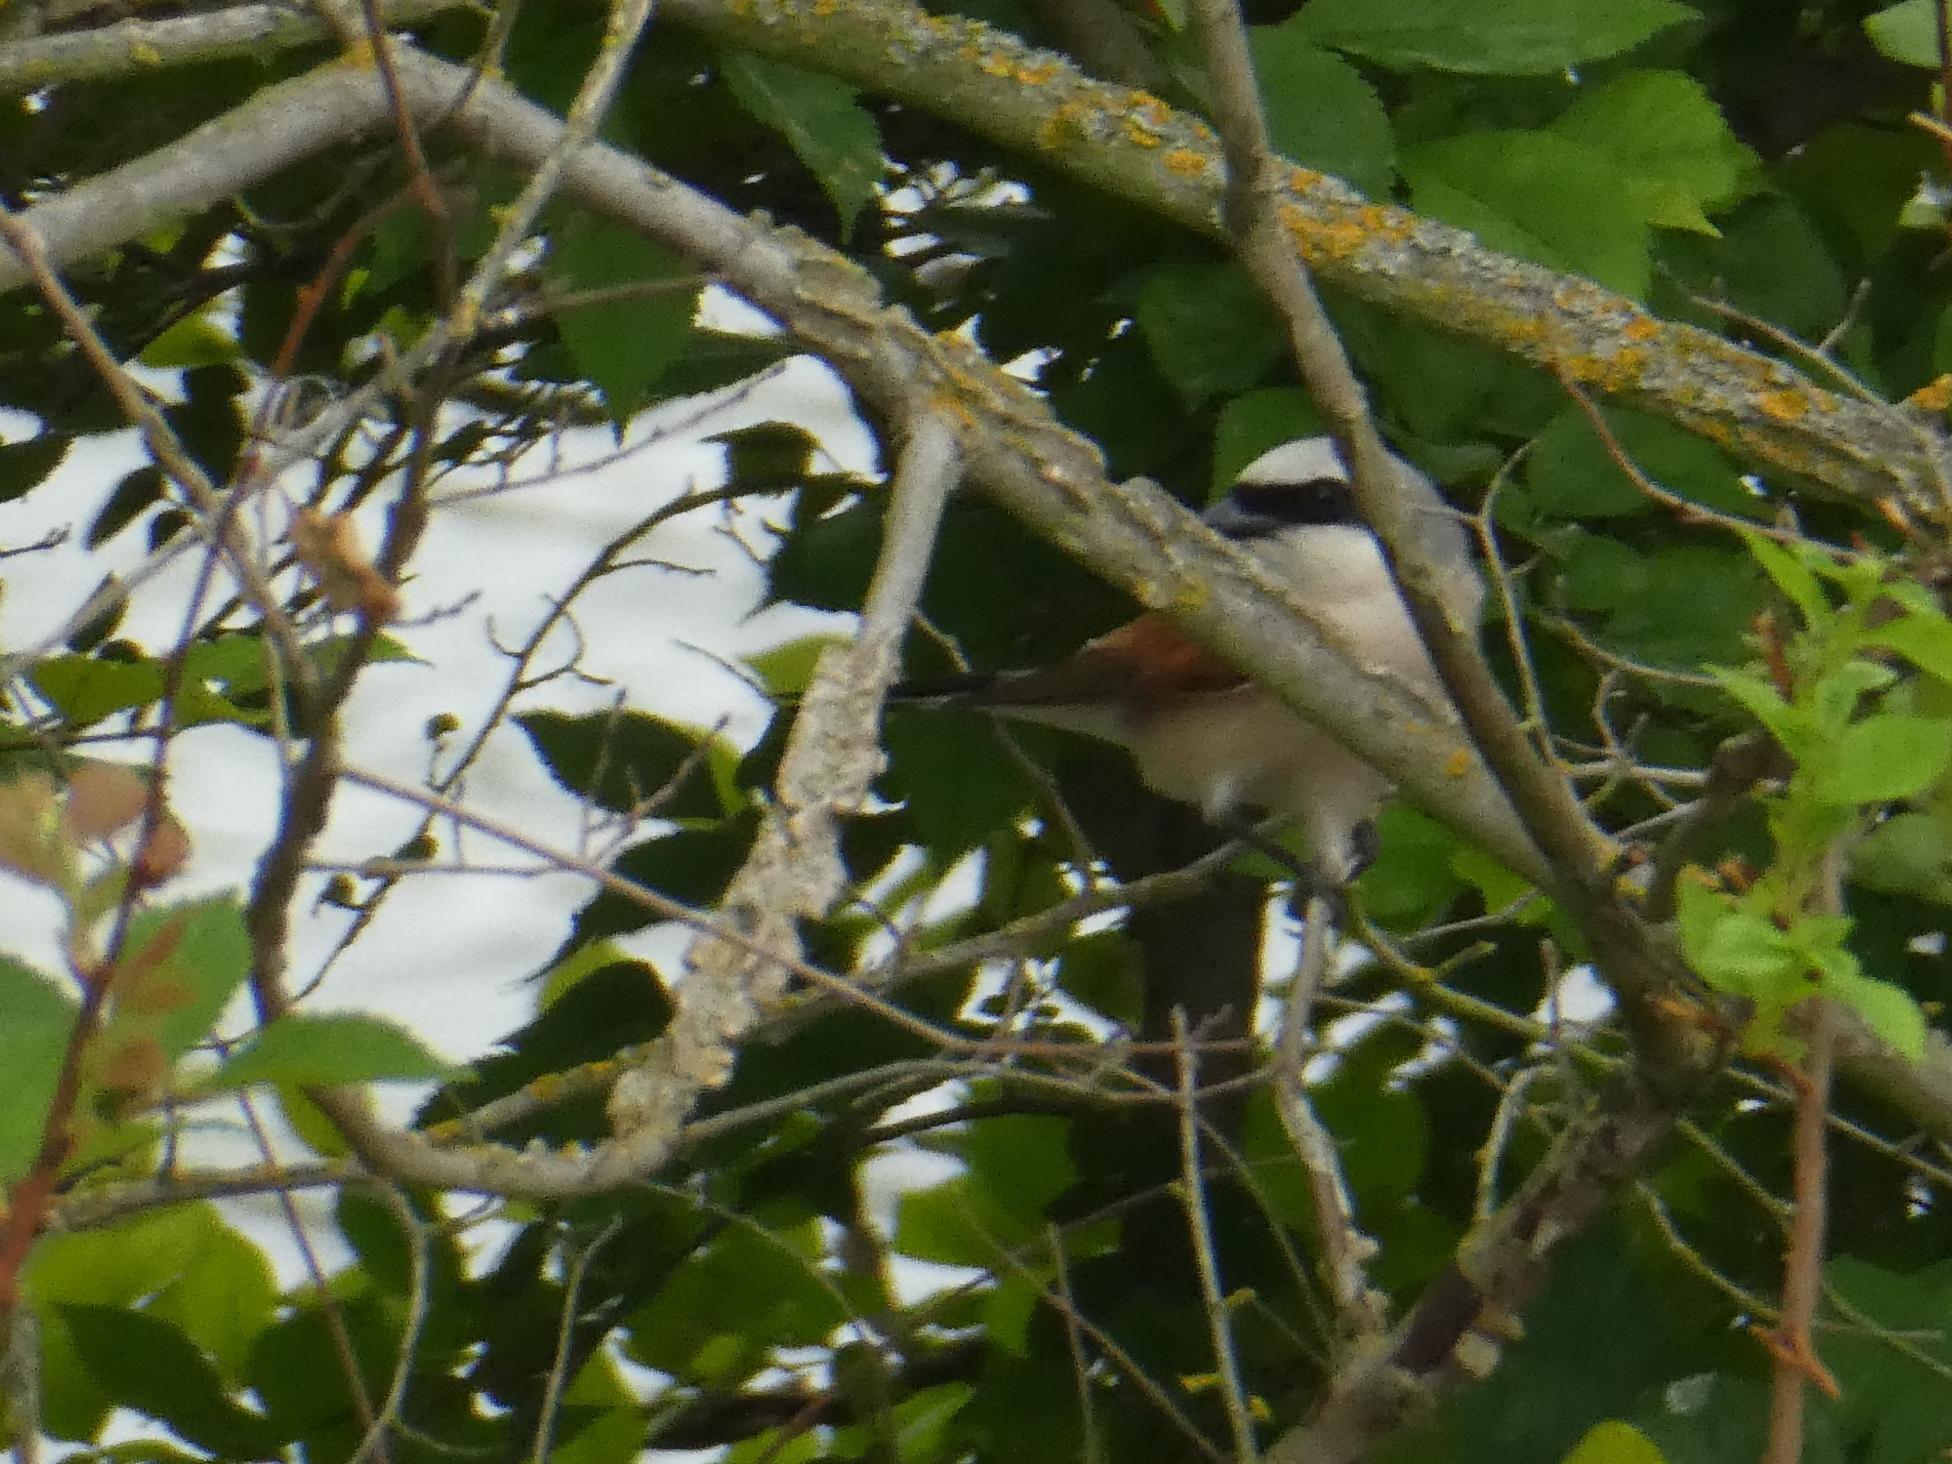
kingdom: Animalia
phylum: Chordata
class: Aves
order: Passeriformes
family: Laniidae
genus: Lanius
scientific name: Lanius collurio
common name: Red-backed shrike
